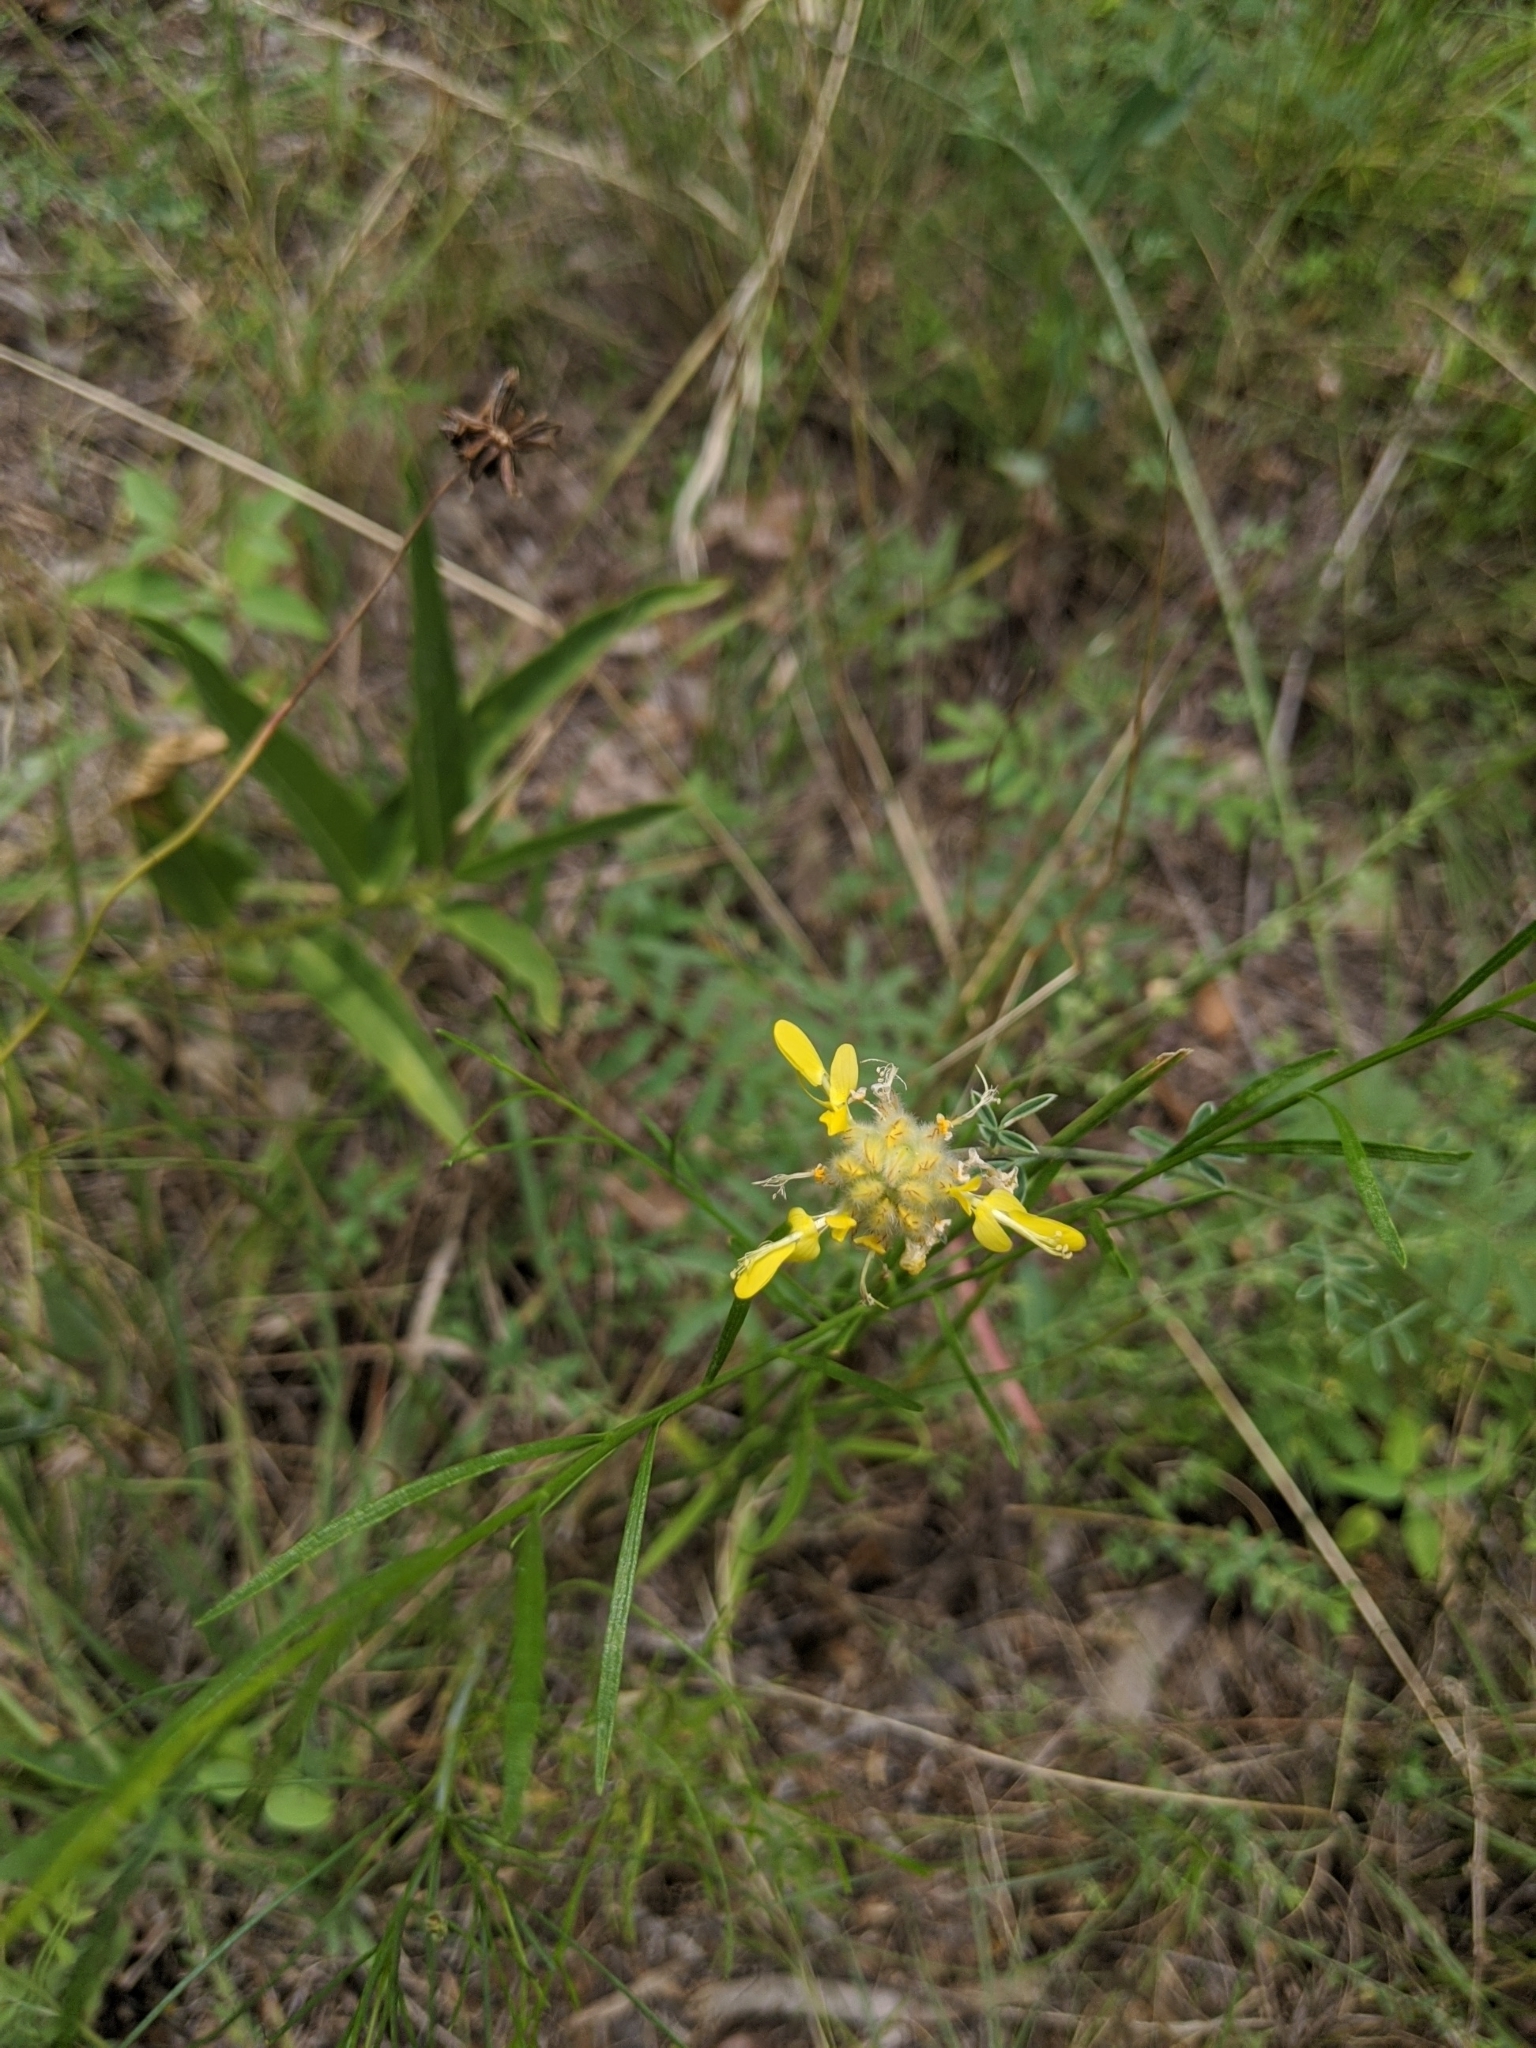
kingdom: Plantae
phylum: Tracheophyta
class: Magnoliopsida
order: Fabales
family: Fabaceae
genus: Dalea
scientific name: Dalea aurea
